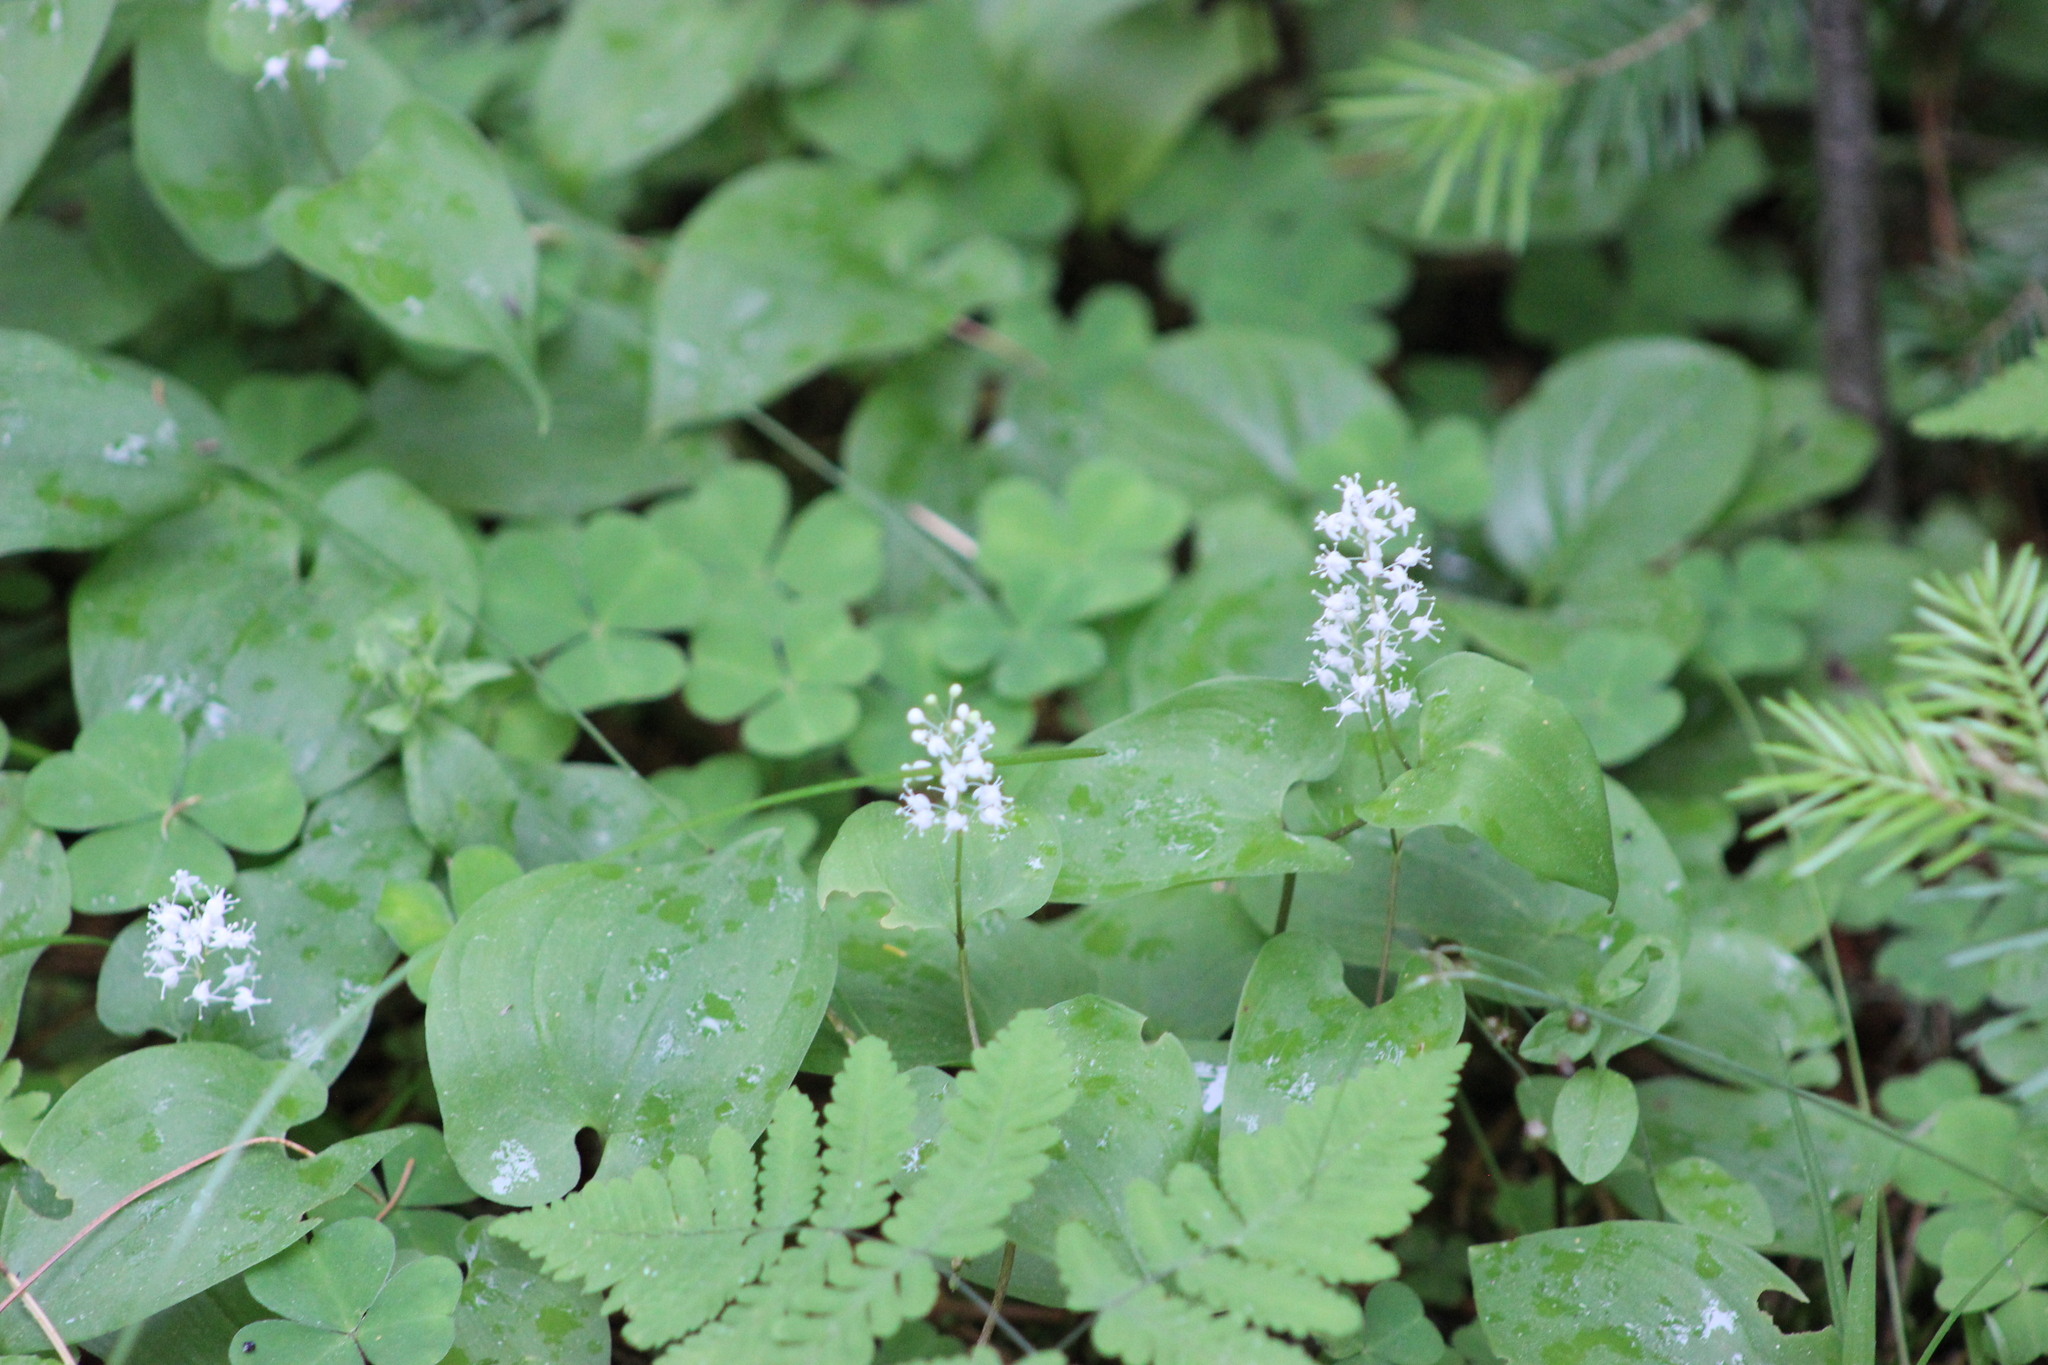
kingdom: Plantae
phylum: Tracheophyta
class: Liliopsida
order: Asparagales
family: Asparagaceae
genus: Maianthemum
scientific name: Maianthemum bifolium
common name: May lily
